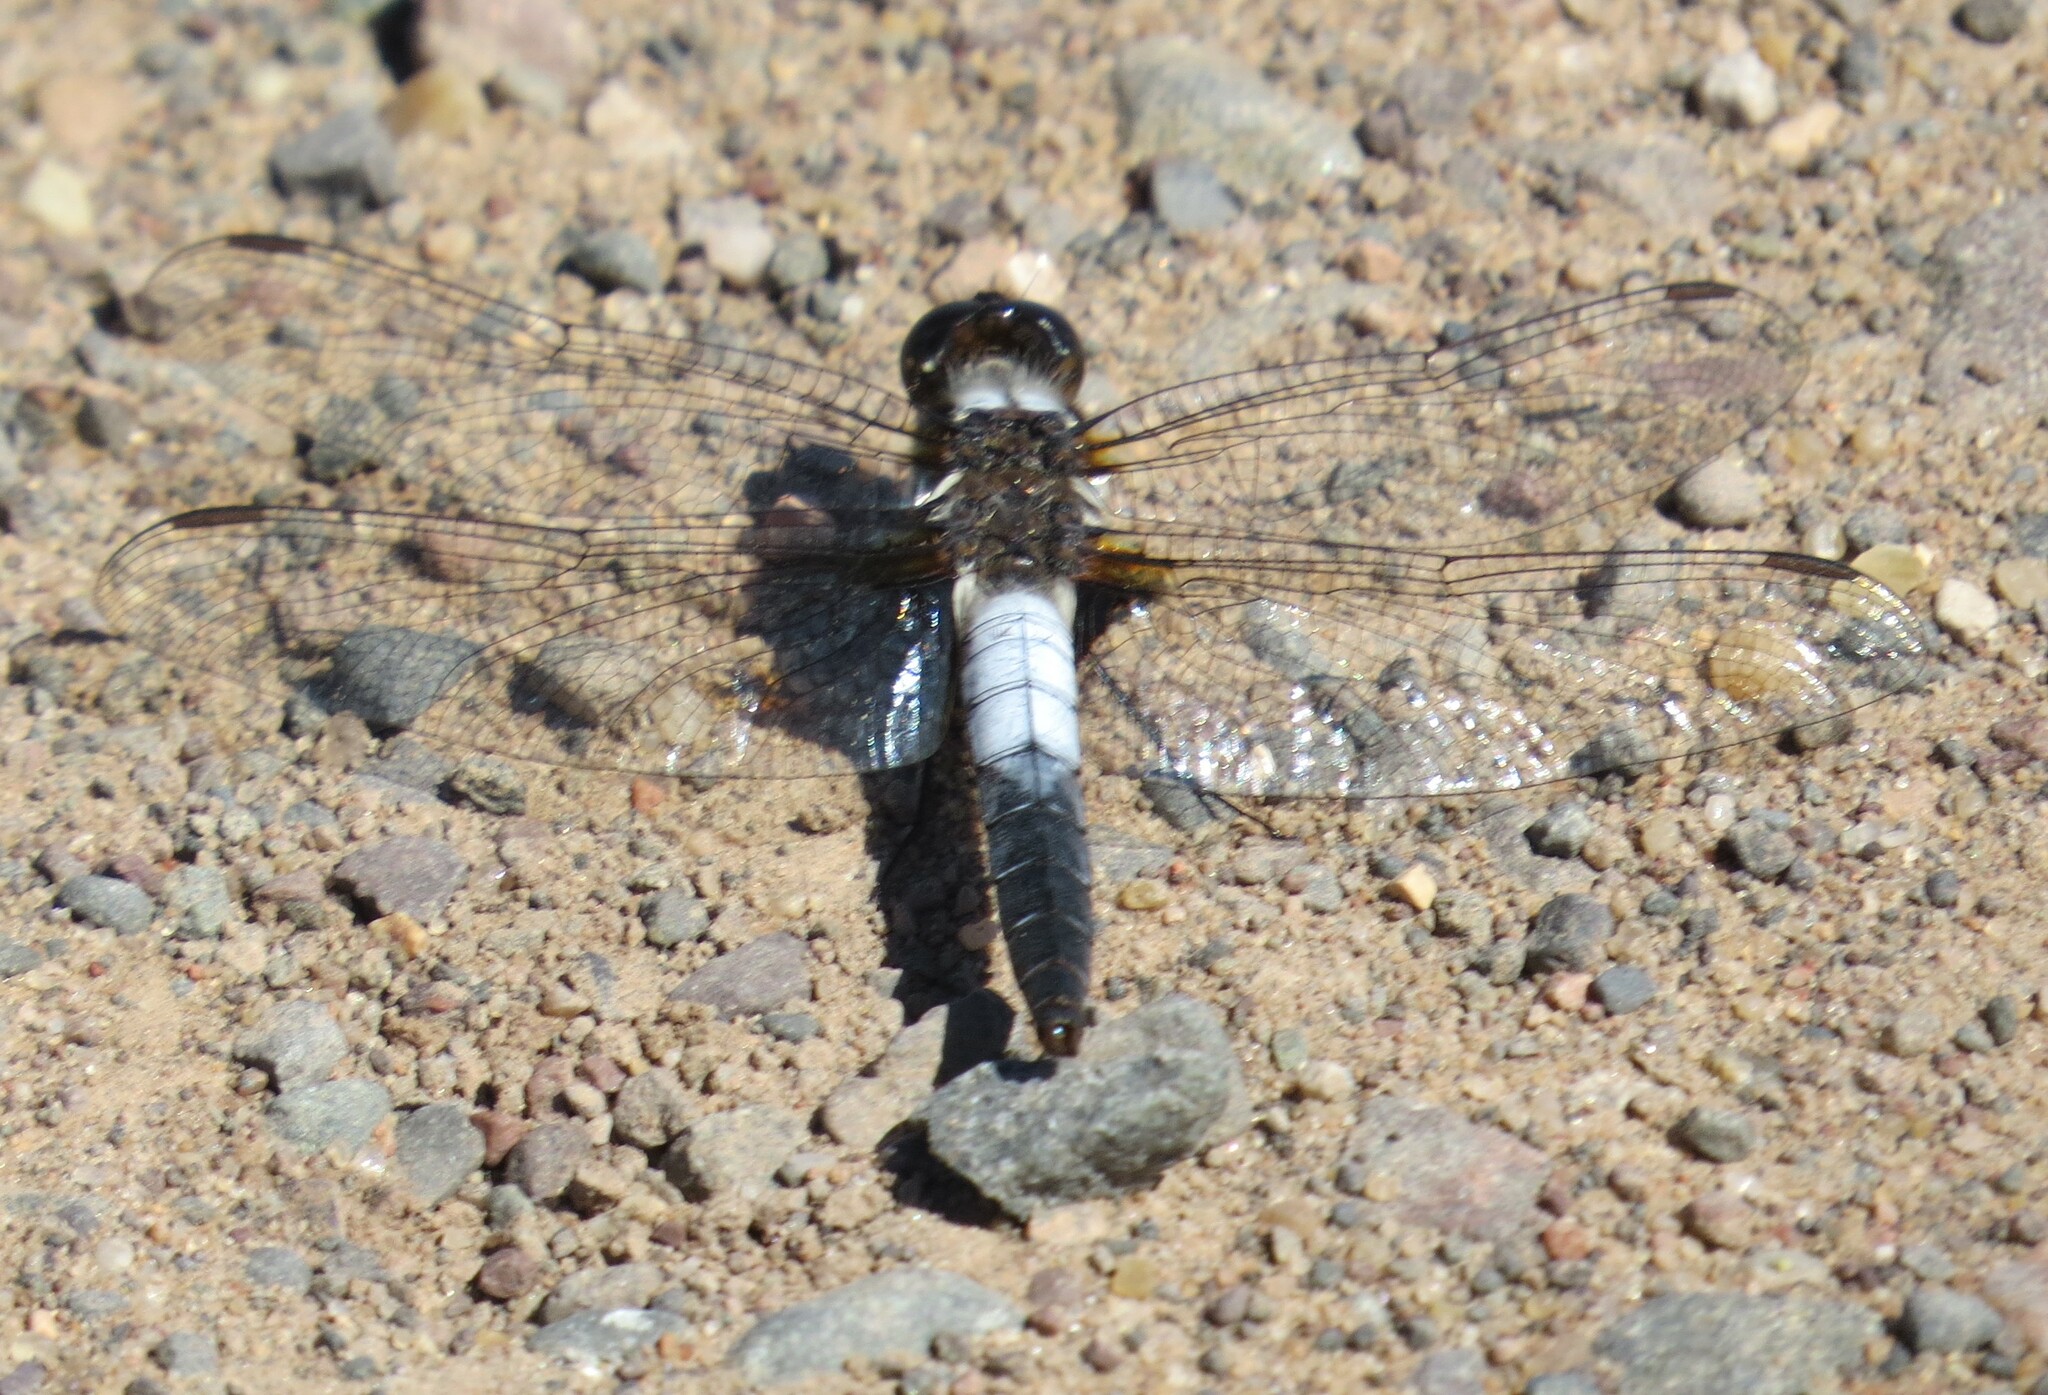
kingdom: Animalia
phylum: Arthropoda
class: Insecta
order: Odonata
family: Libellulidae
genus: Ladona
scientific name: Ladona julia
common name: Chalk-fronted corporal
